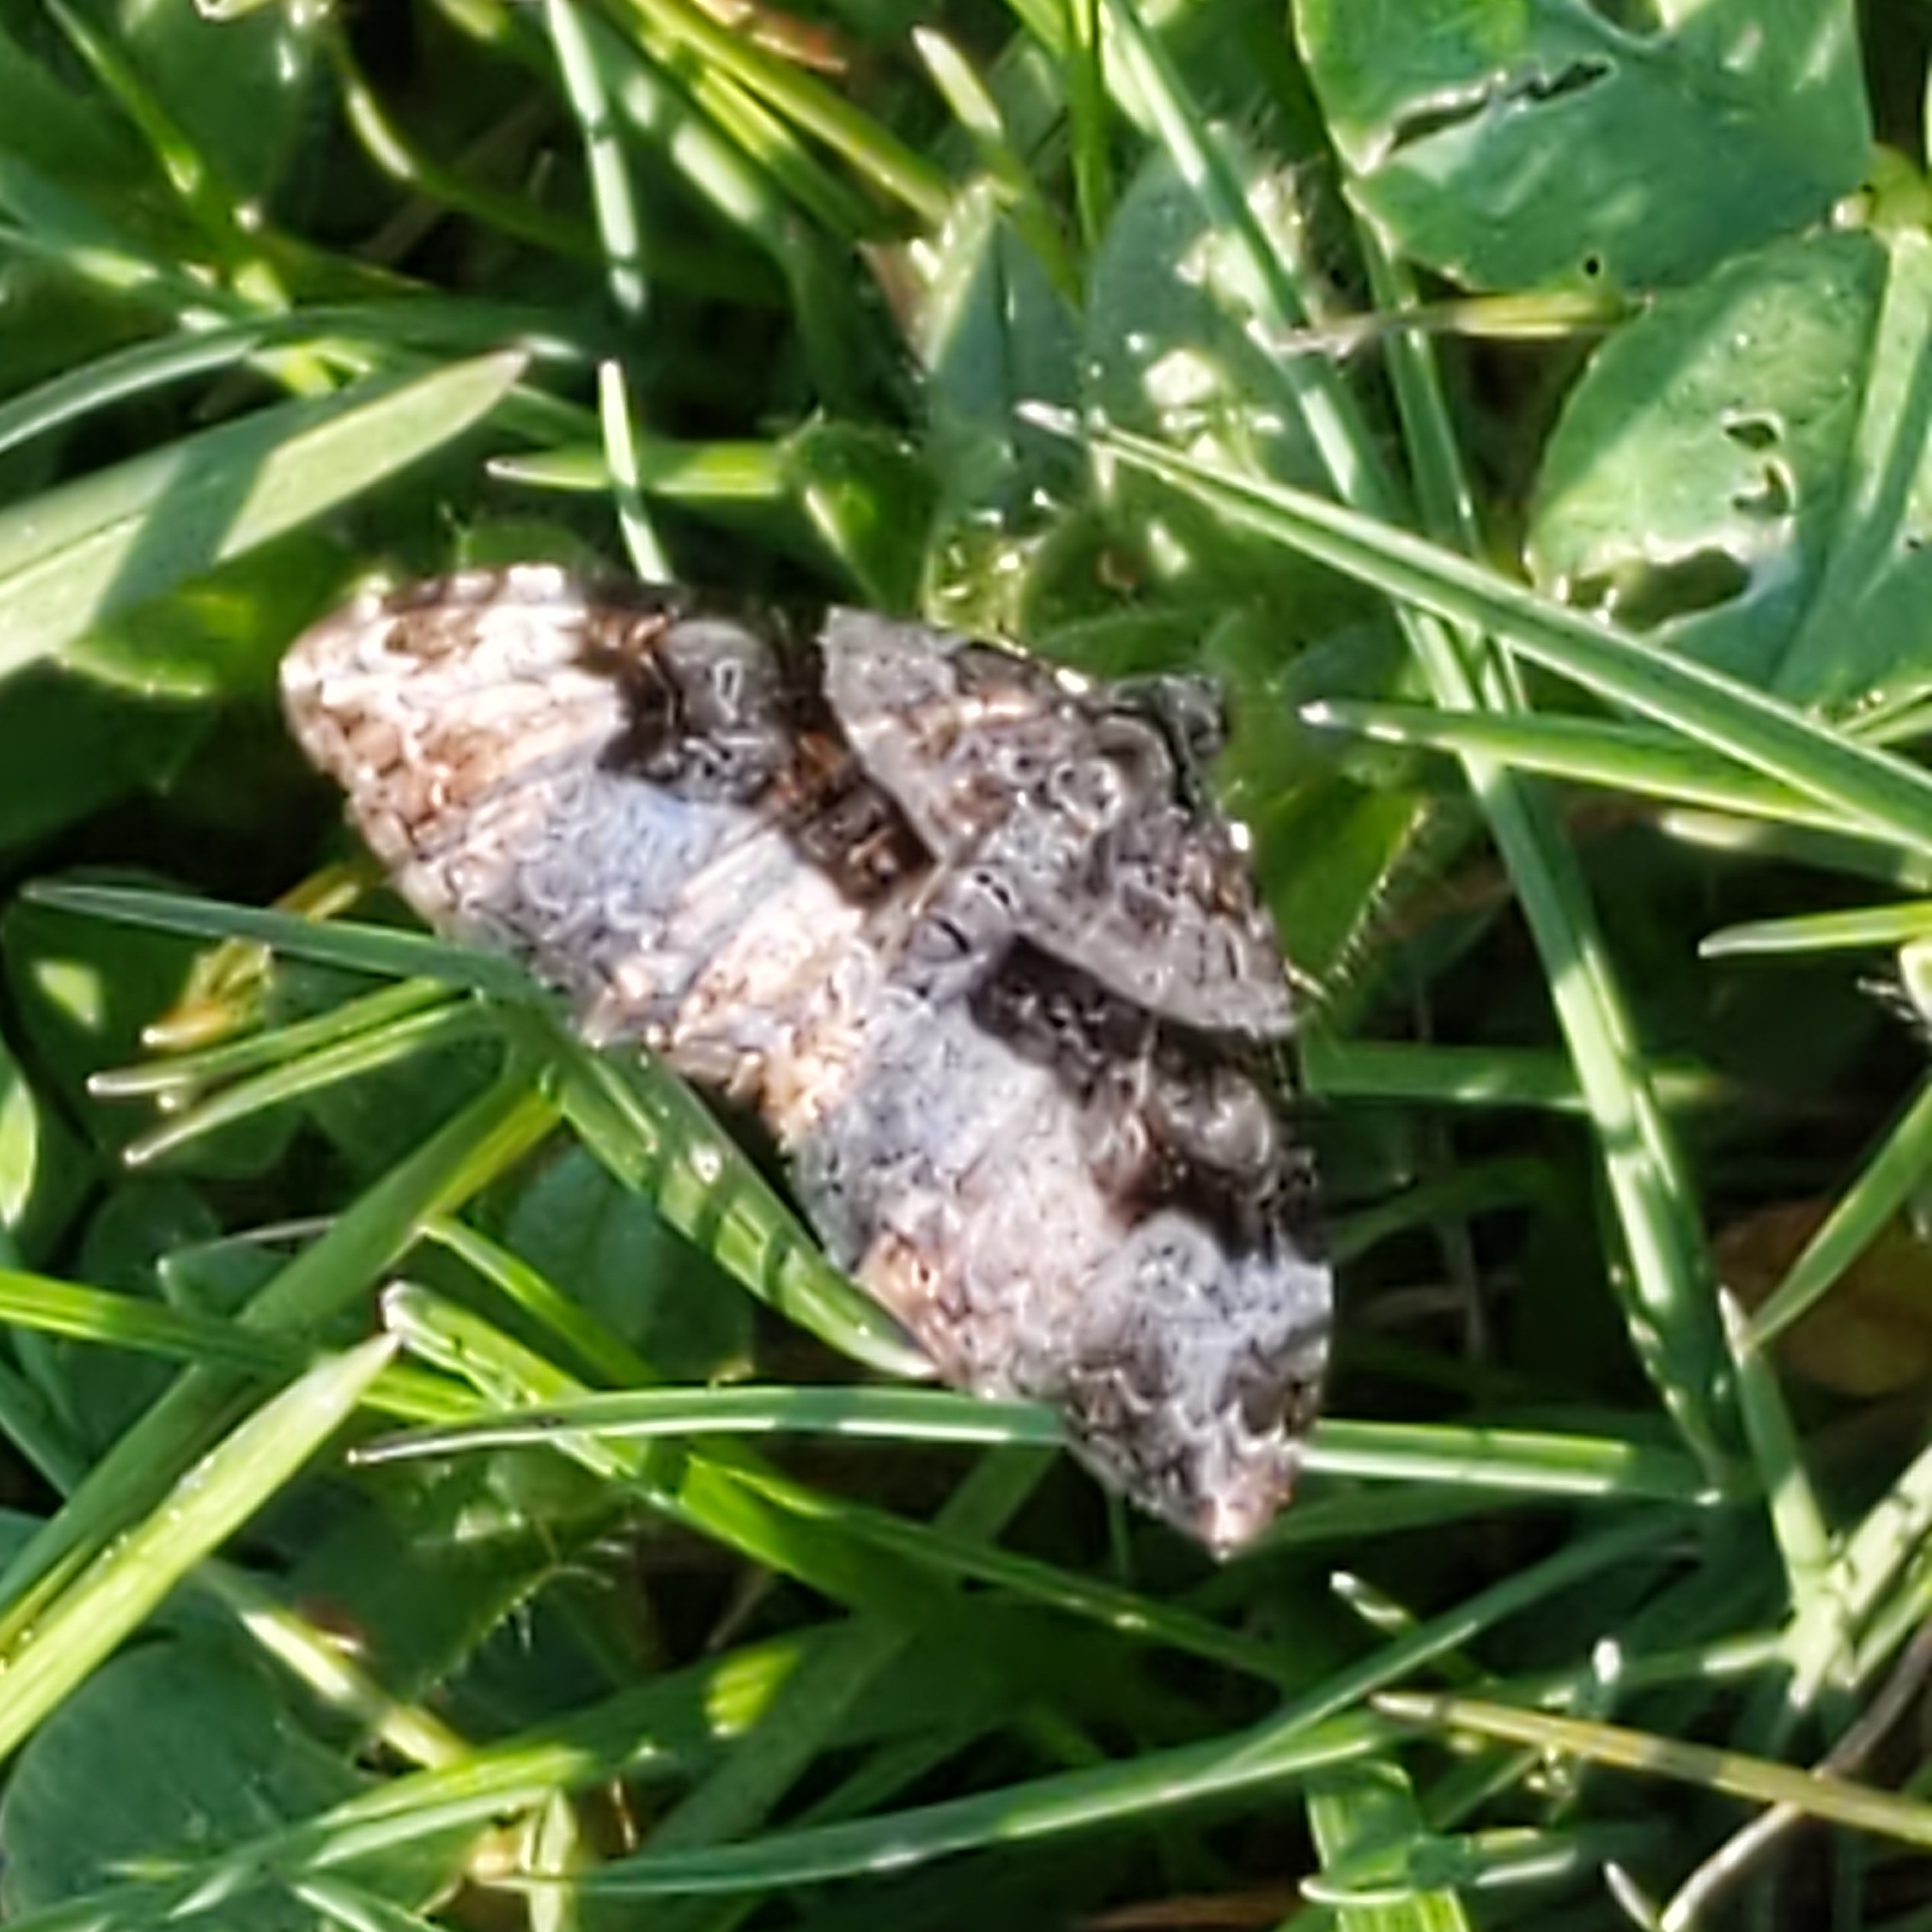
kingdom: Animalia
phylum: Arthropoda
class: Insecta
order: Lepidoptera
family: Geometridae
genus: Xanthorhoe
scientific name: Xanthorhoe lacustrata
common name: Toothed brown carpet
